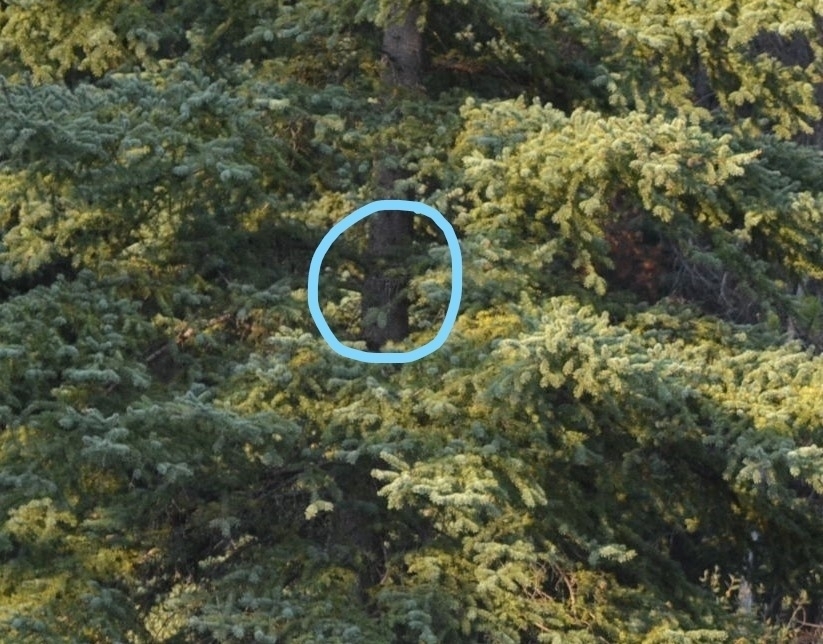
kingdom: Animalia
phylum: Chordata
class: Aves
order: Strigiformes
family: Strigidae
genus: Aegolius
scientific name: Aegolius acadicus
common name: Northern saw-whet owl
